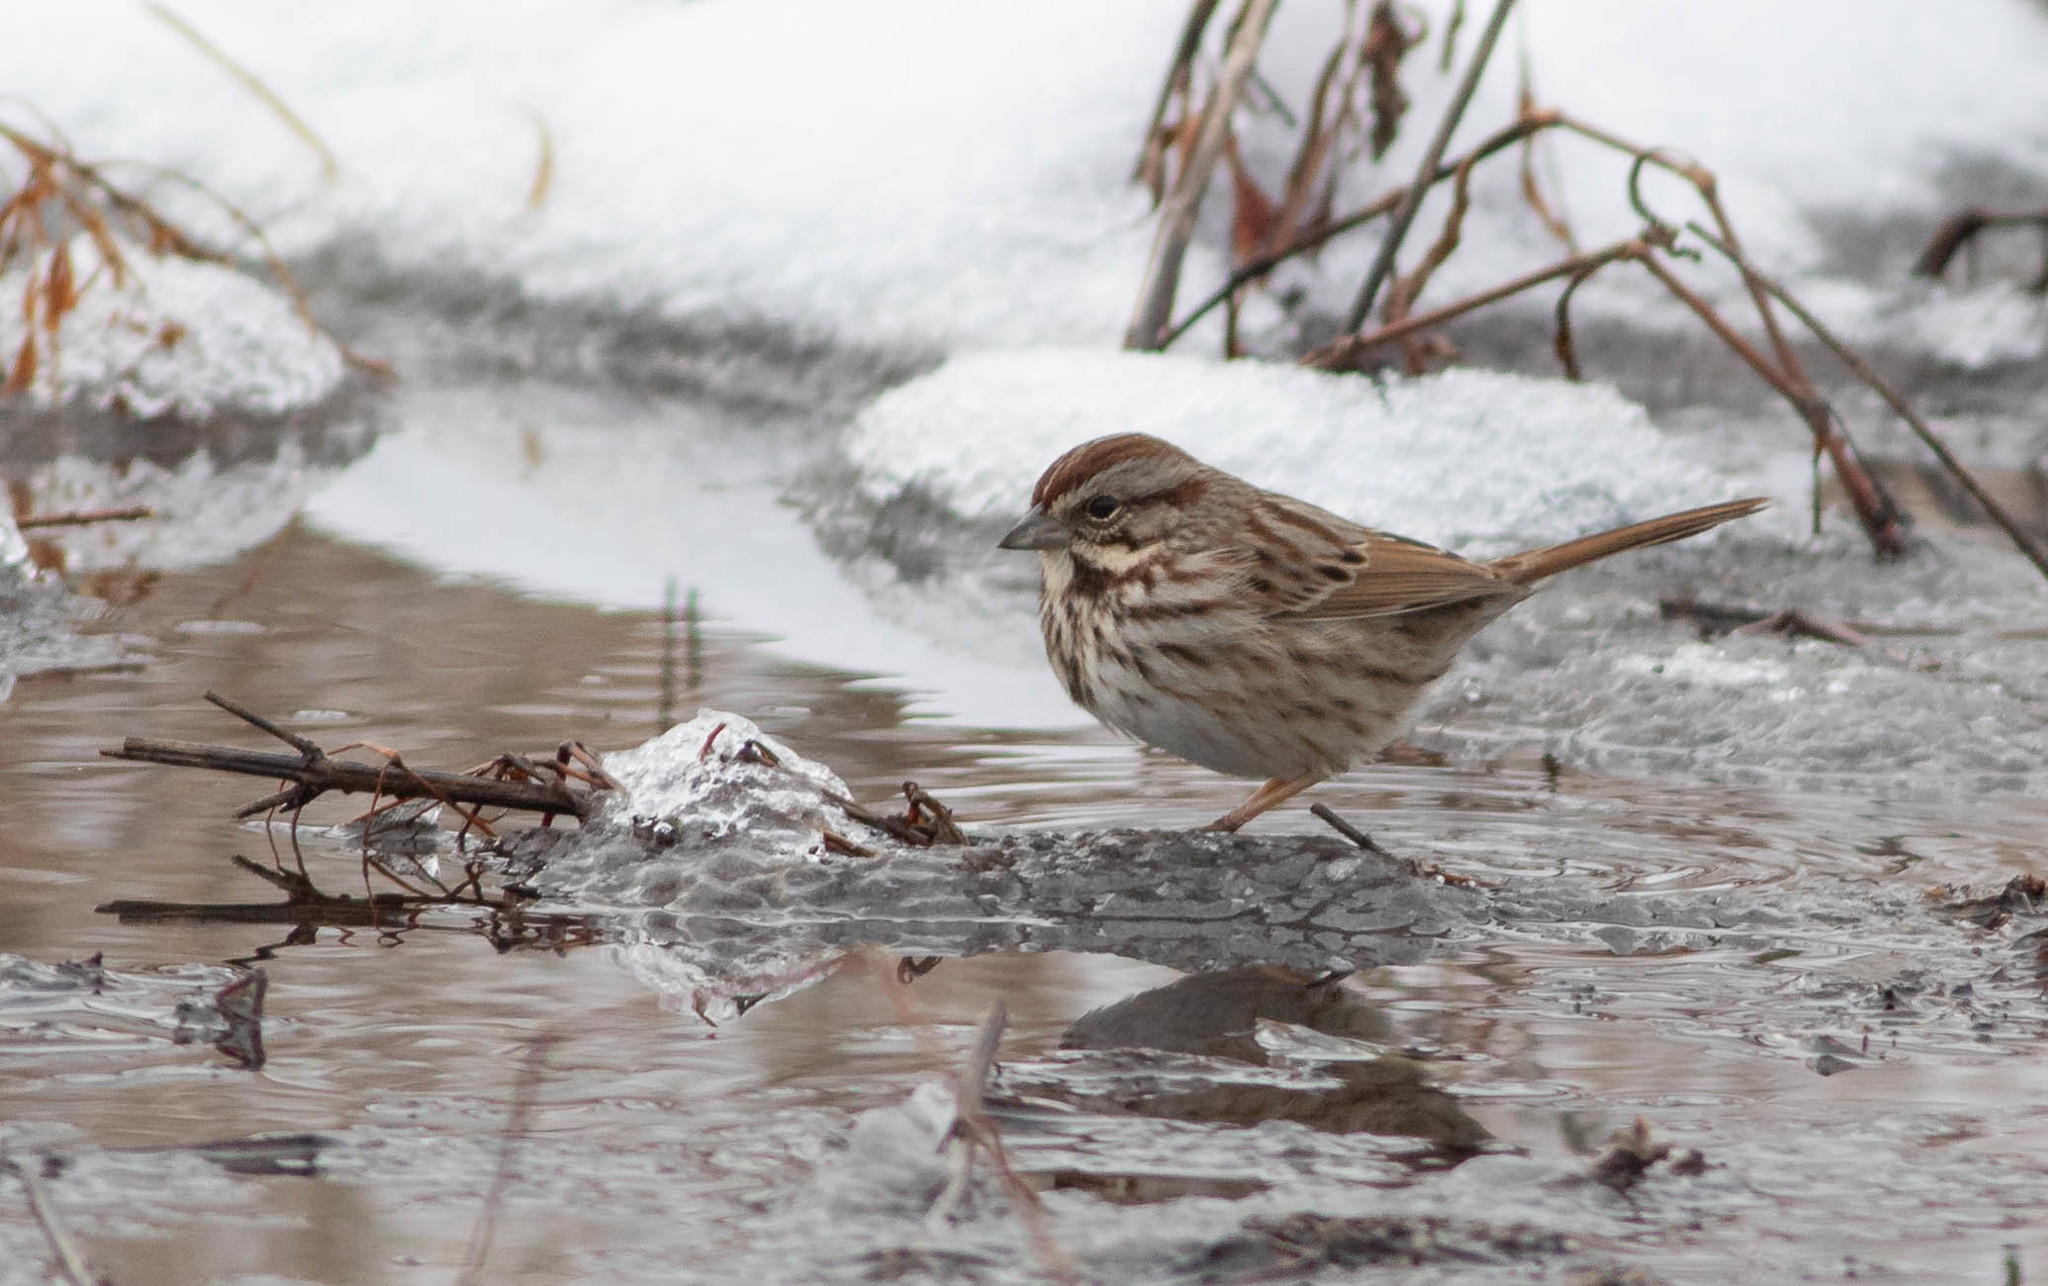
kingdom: Animalia
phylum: Chordata
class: Aves
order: Passeriformes
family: Passerellidae
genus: Melospiza
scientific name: Melospiza melodia
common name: Song sparrow
